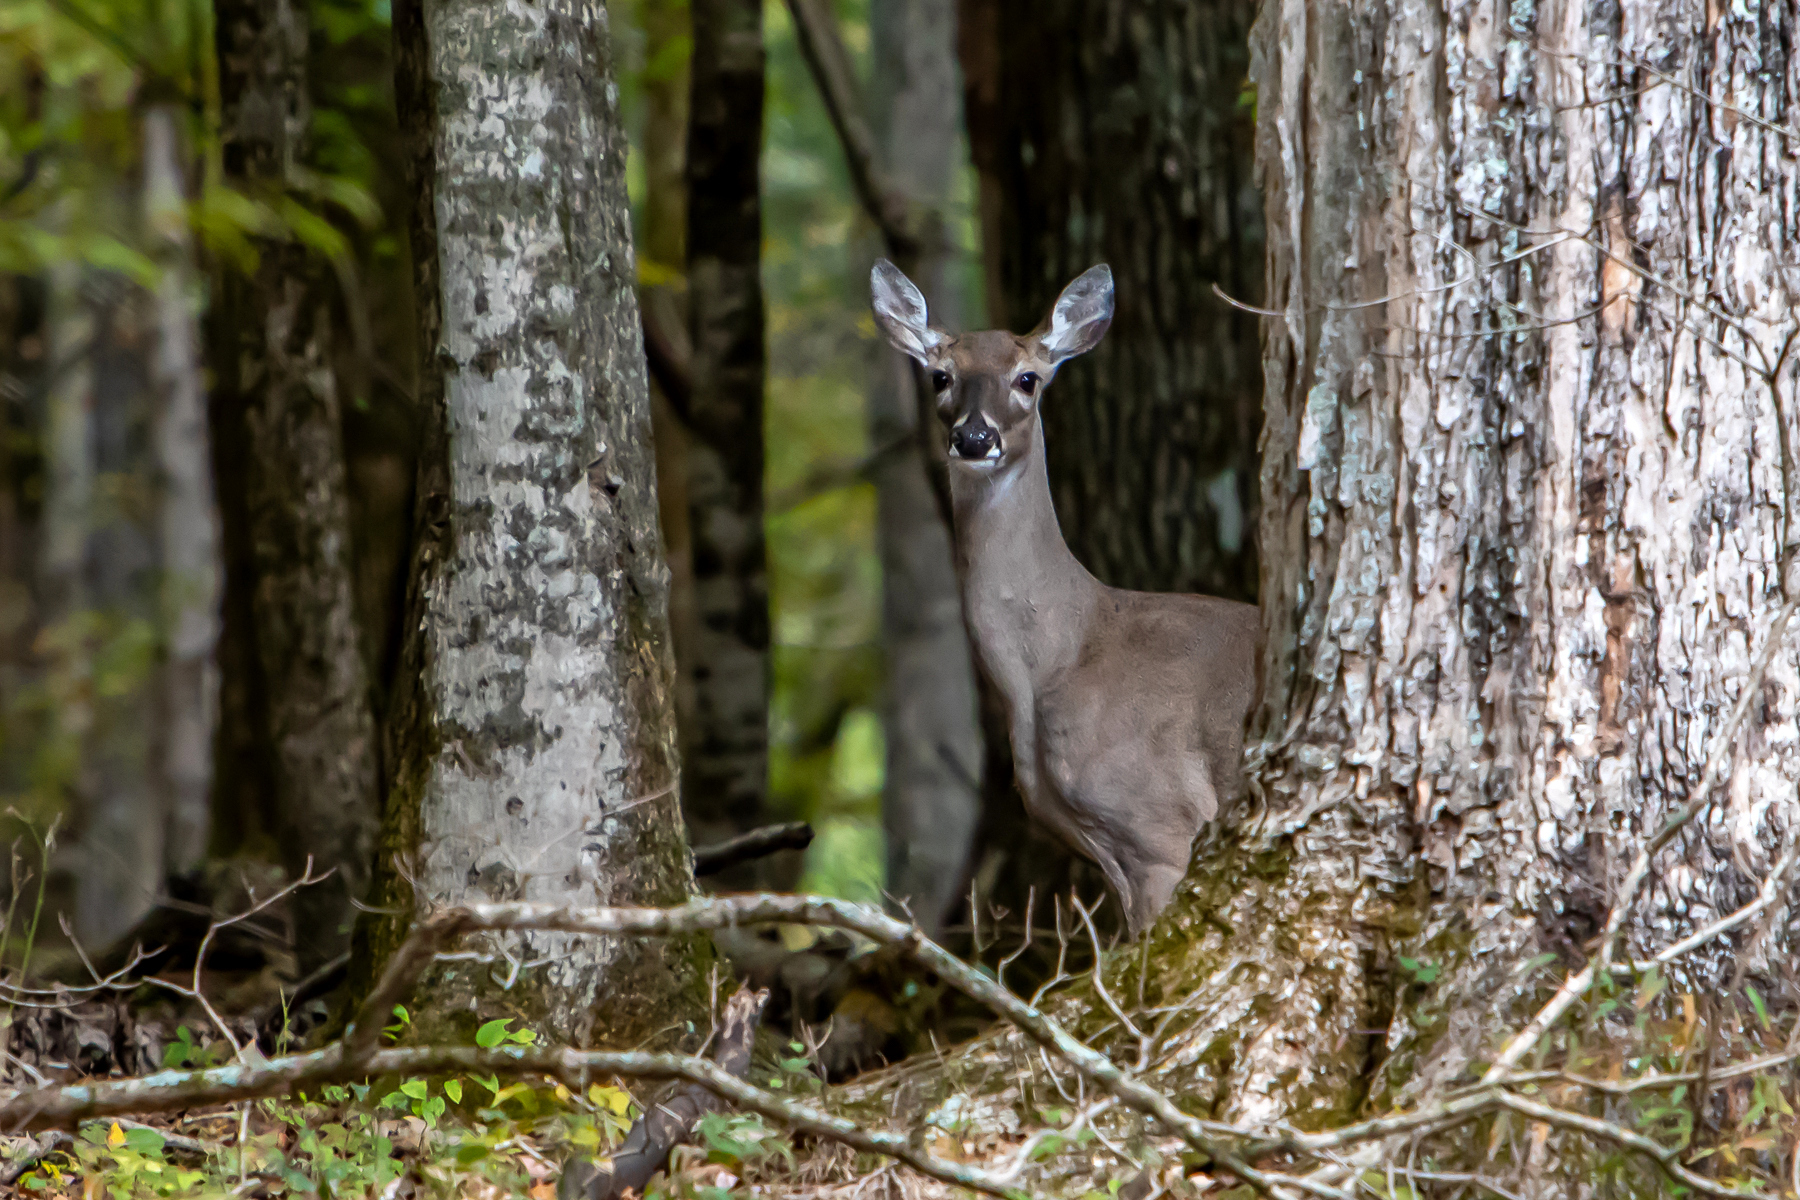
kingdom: Animalia
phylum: Chordata
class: Mammalia
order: Artiodactyla
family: Cervidae
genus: Odocoileus
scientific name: Odocoileus virginianus
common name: White-tailed deer
